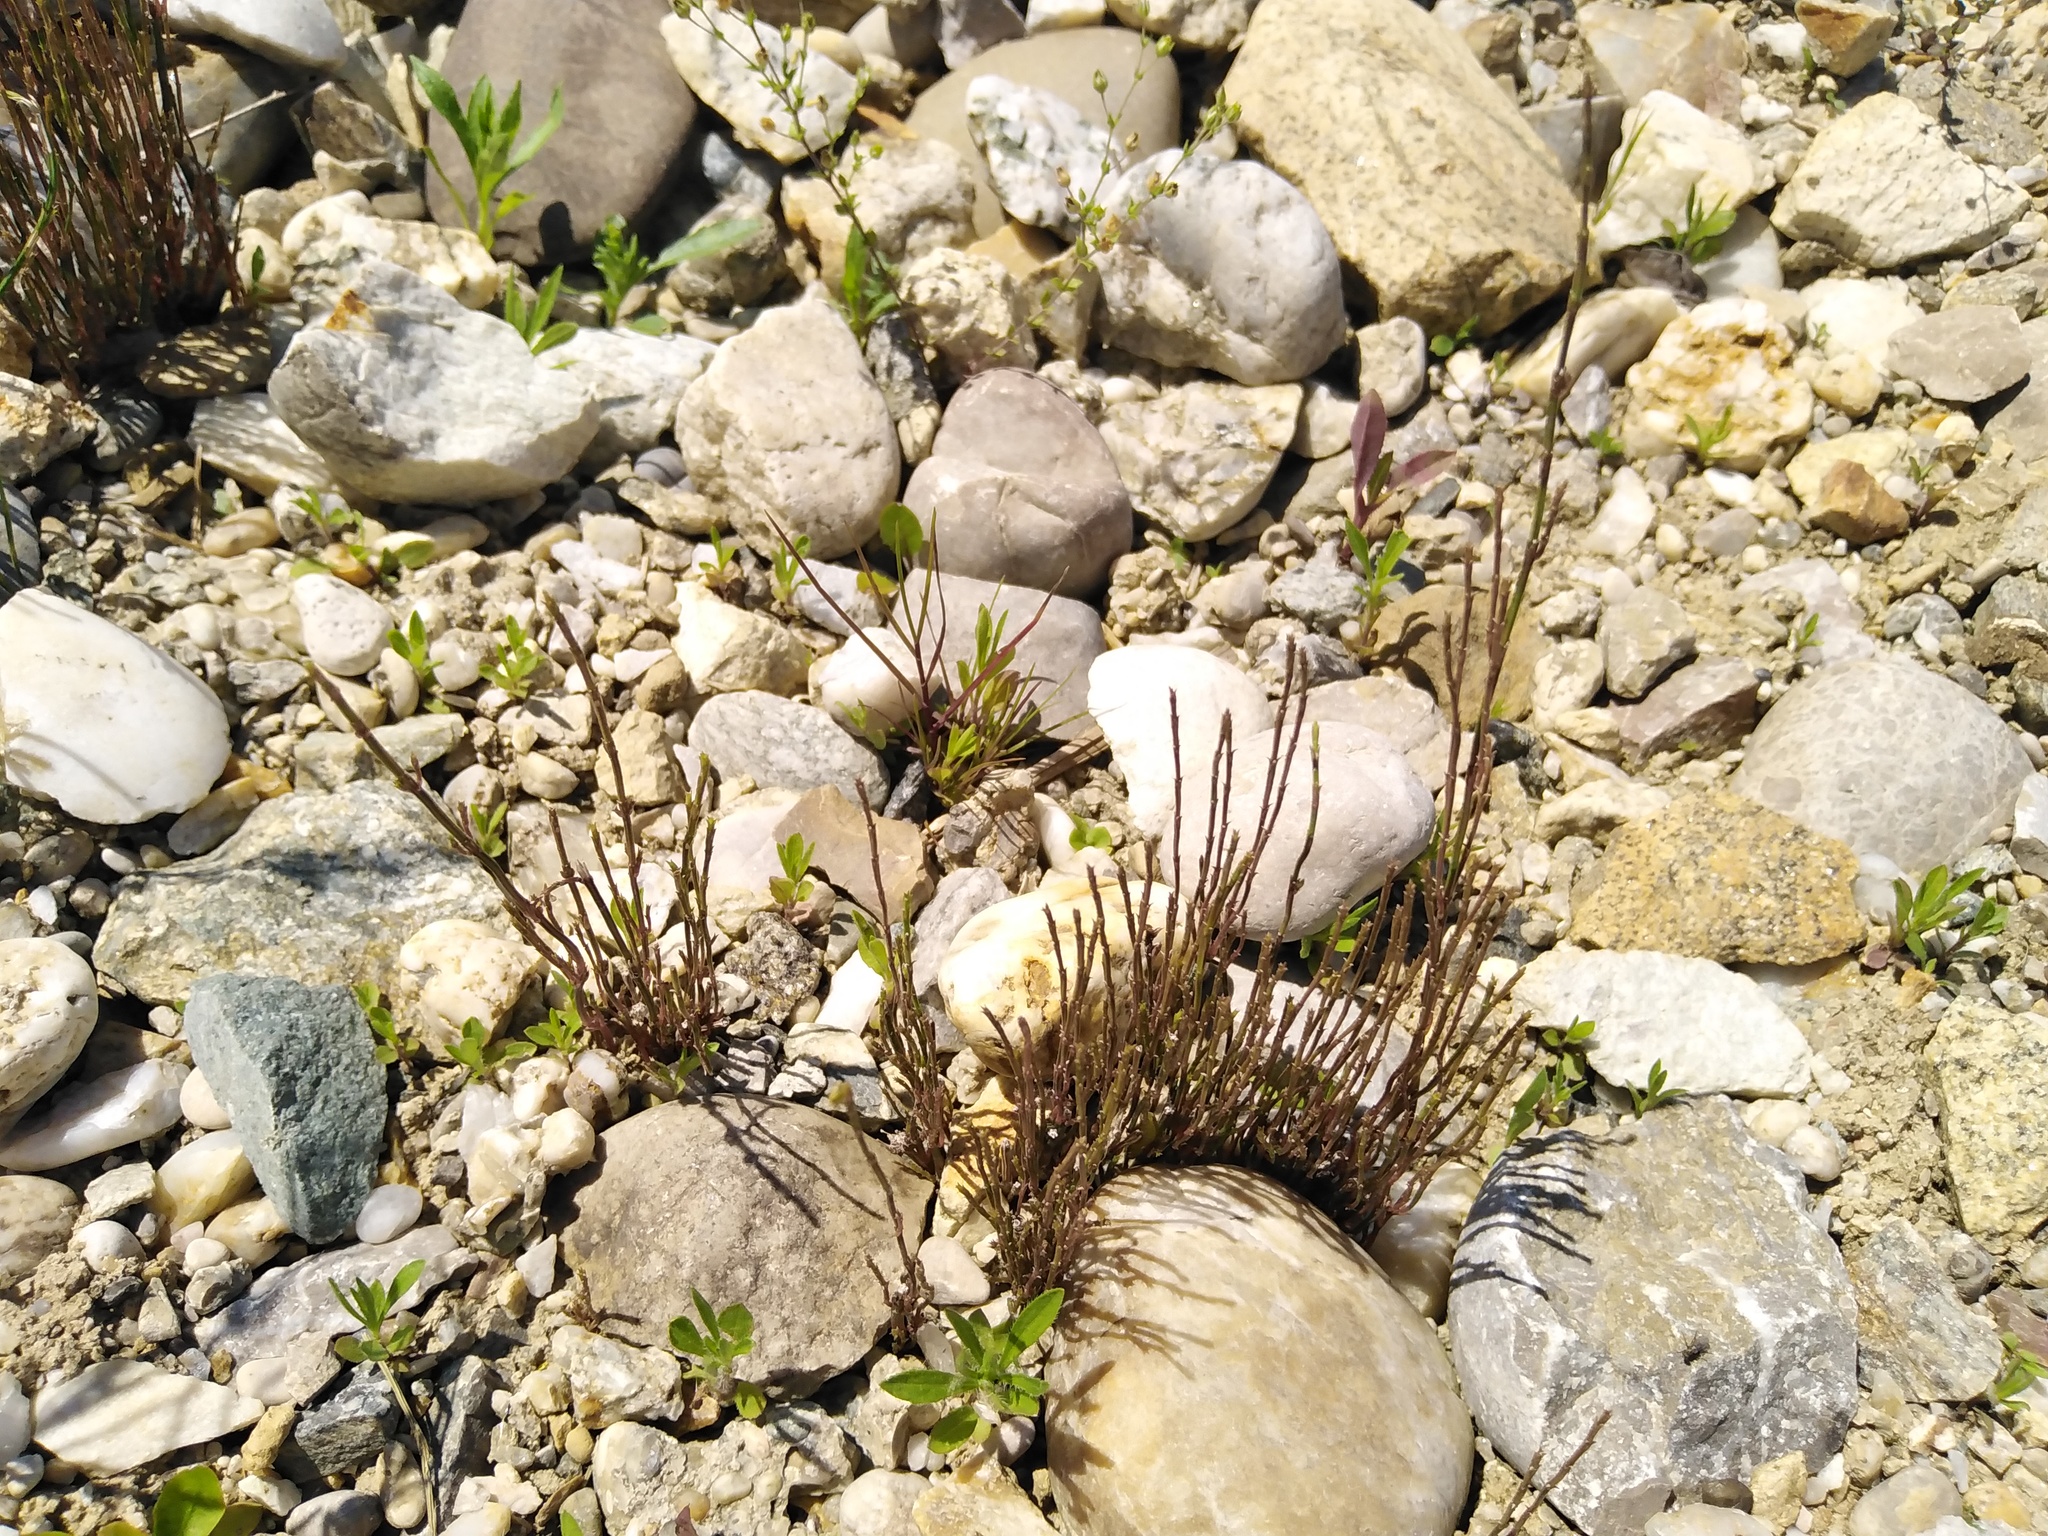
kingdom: Plantae
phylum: Tracheophyta
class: Polypodiopsida
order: Equisetales
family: Equisetaceae
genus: Equisetum
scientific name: Equisetum arvense
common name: Field horsetail
